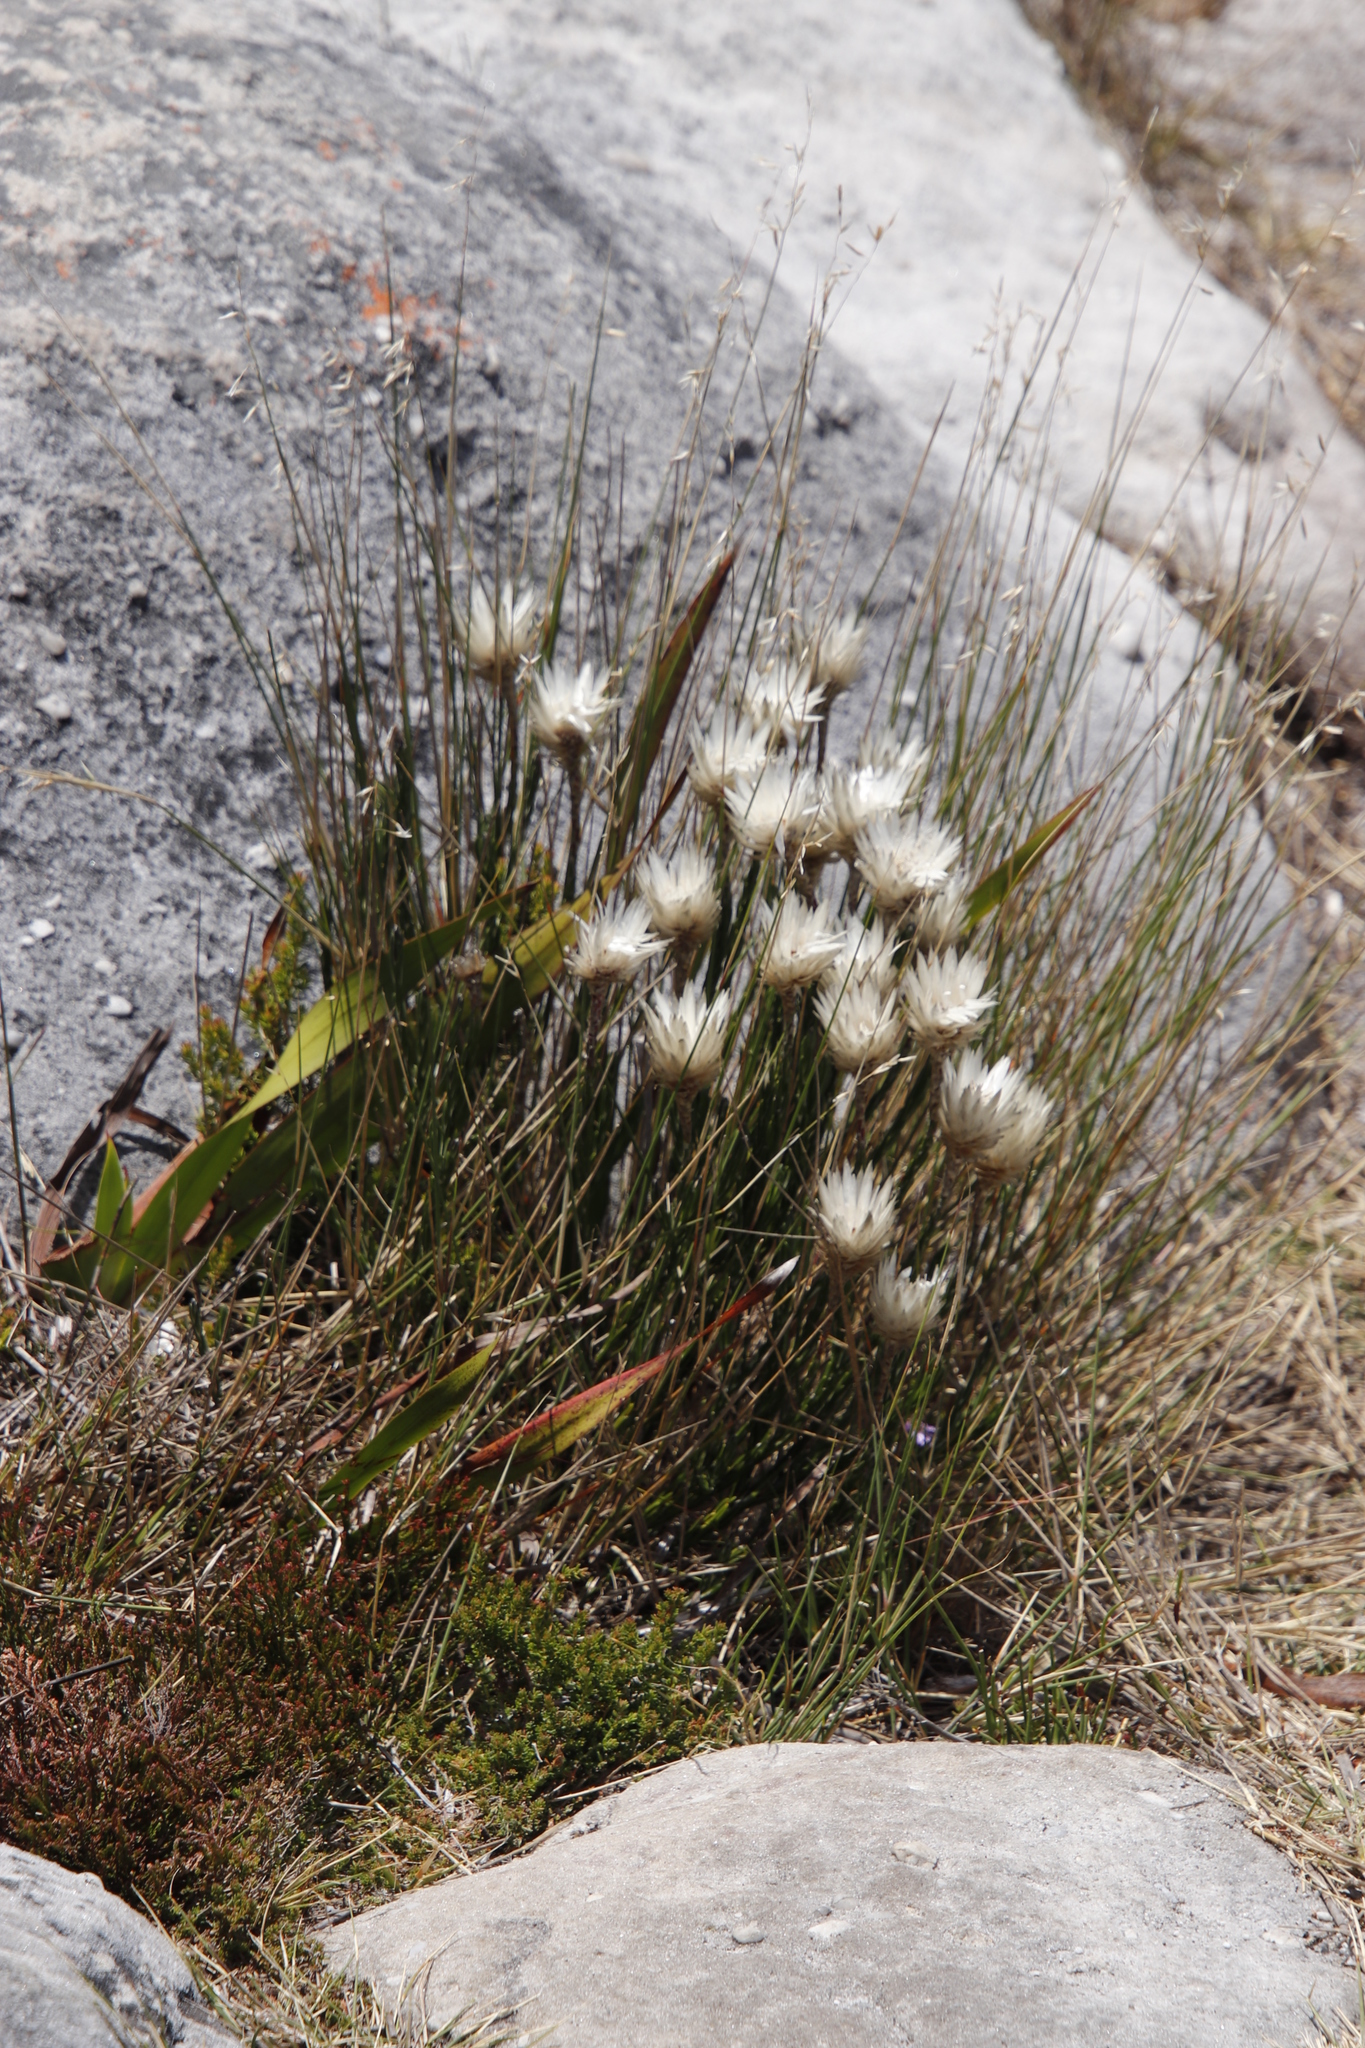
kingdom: Plantae
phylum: Tracheophyta
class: Magnoliopsida
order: Asterales
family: Asteraceae
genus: Edmondia
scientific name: Edmondia pinifolia
